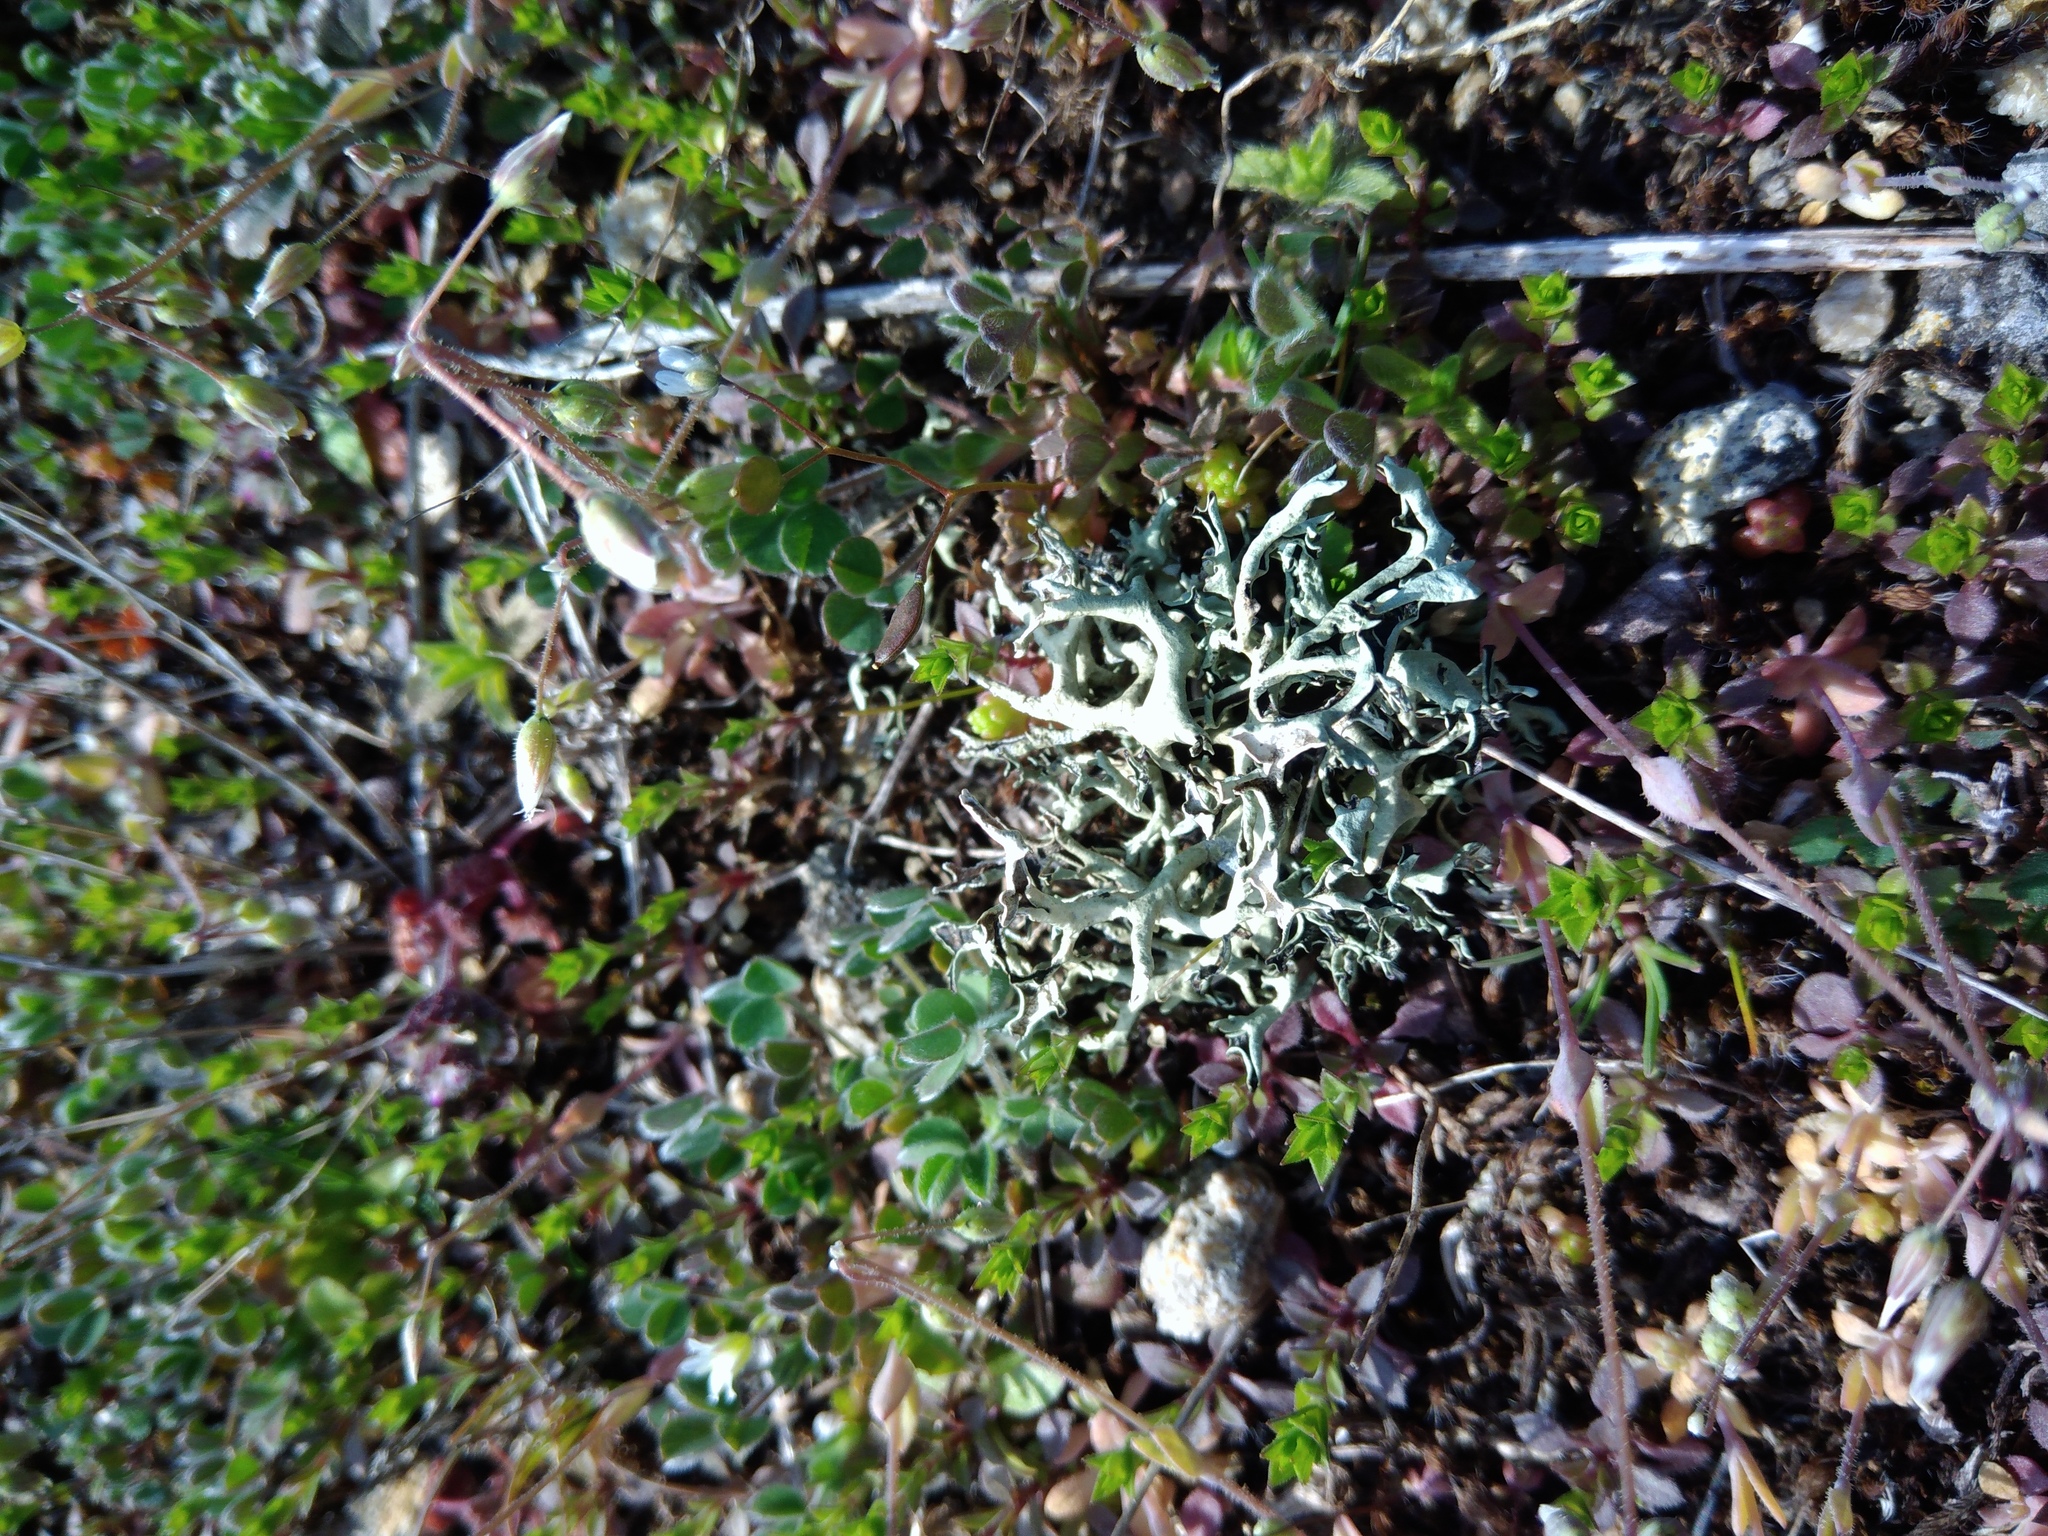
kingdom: Fungi
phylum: Ascomycota
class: Lecanoromycetes
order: Lecanorales
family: Parmeliaceae
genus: Xanthoparmelia
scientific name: Xanthoparmelia camtschadalis
